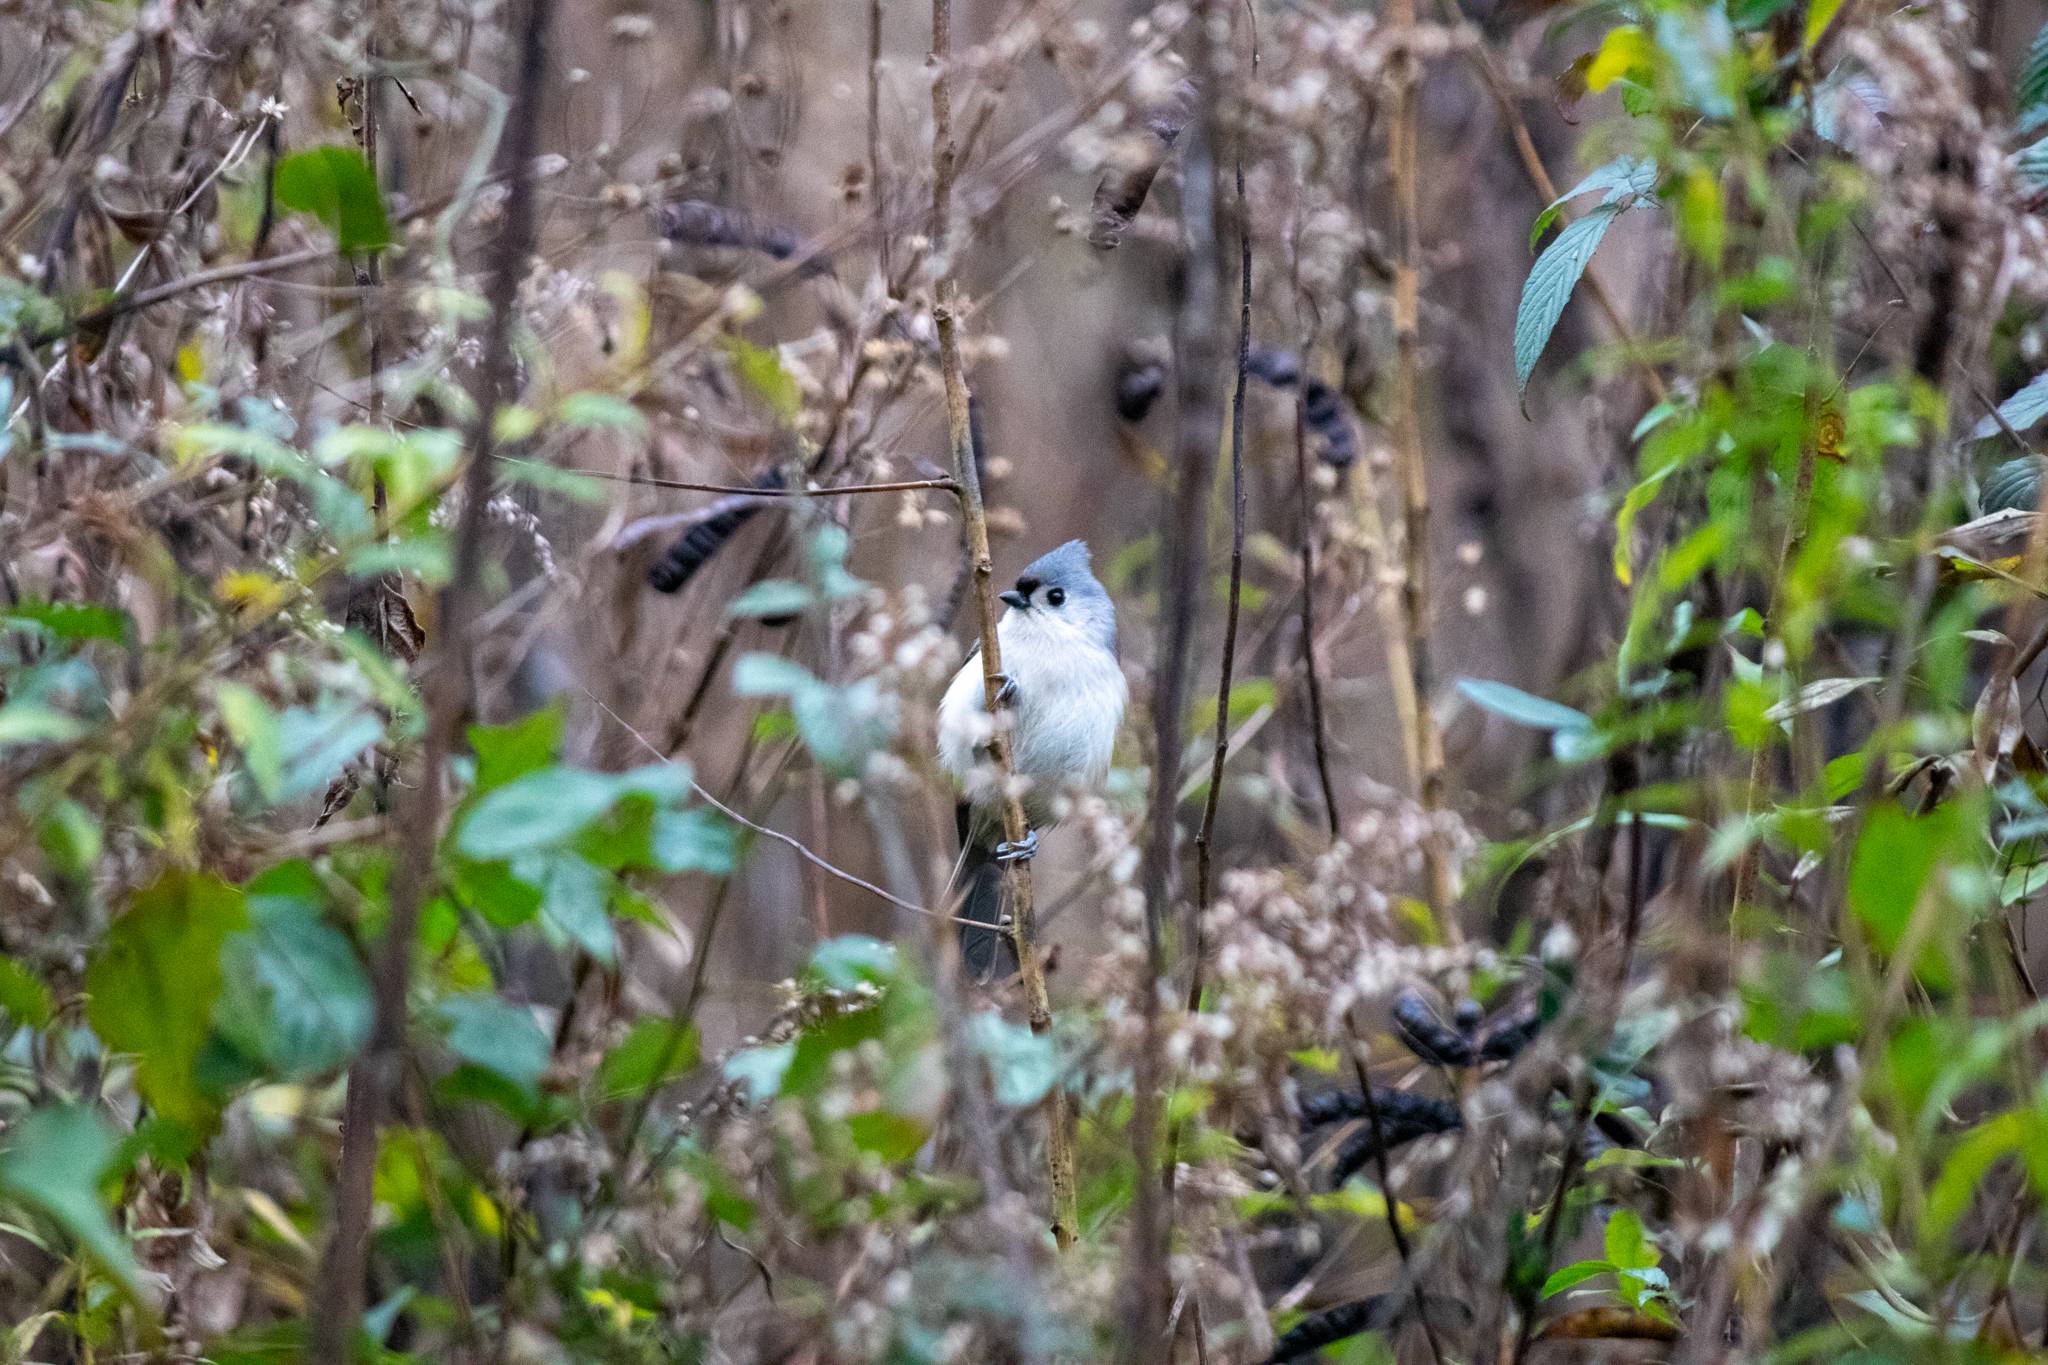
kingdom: Animalia
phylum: Chordata
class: Aves
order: Passeriformes
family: Paridae
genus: Baeolophus
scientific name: Baeolophus bicolor
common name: Tufted titmouse
